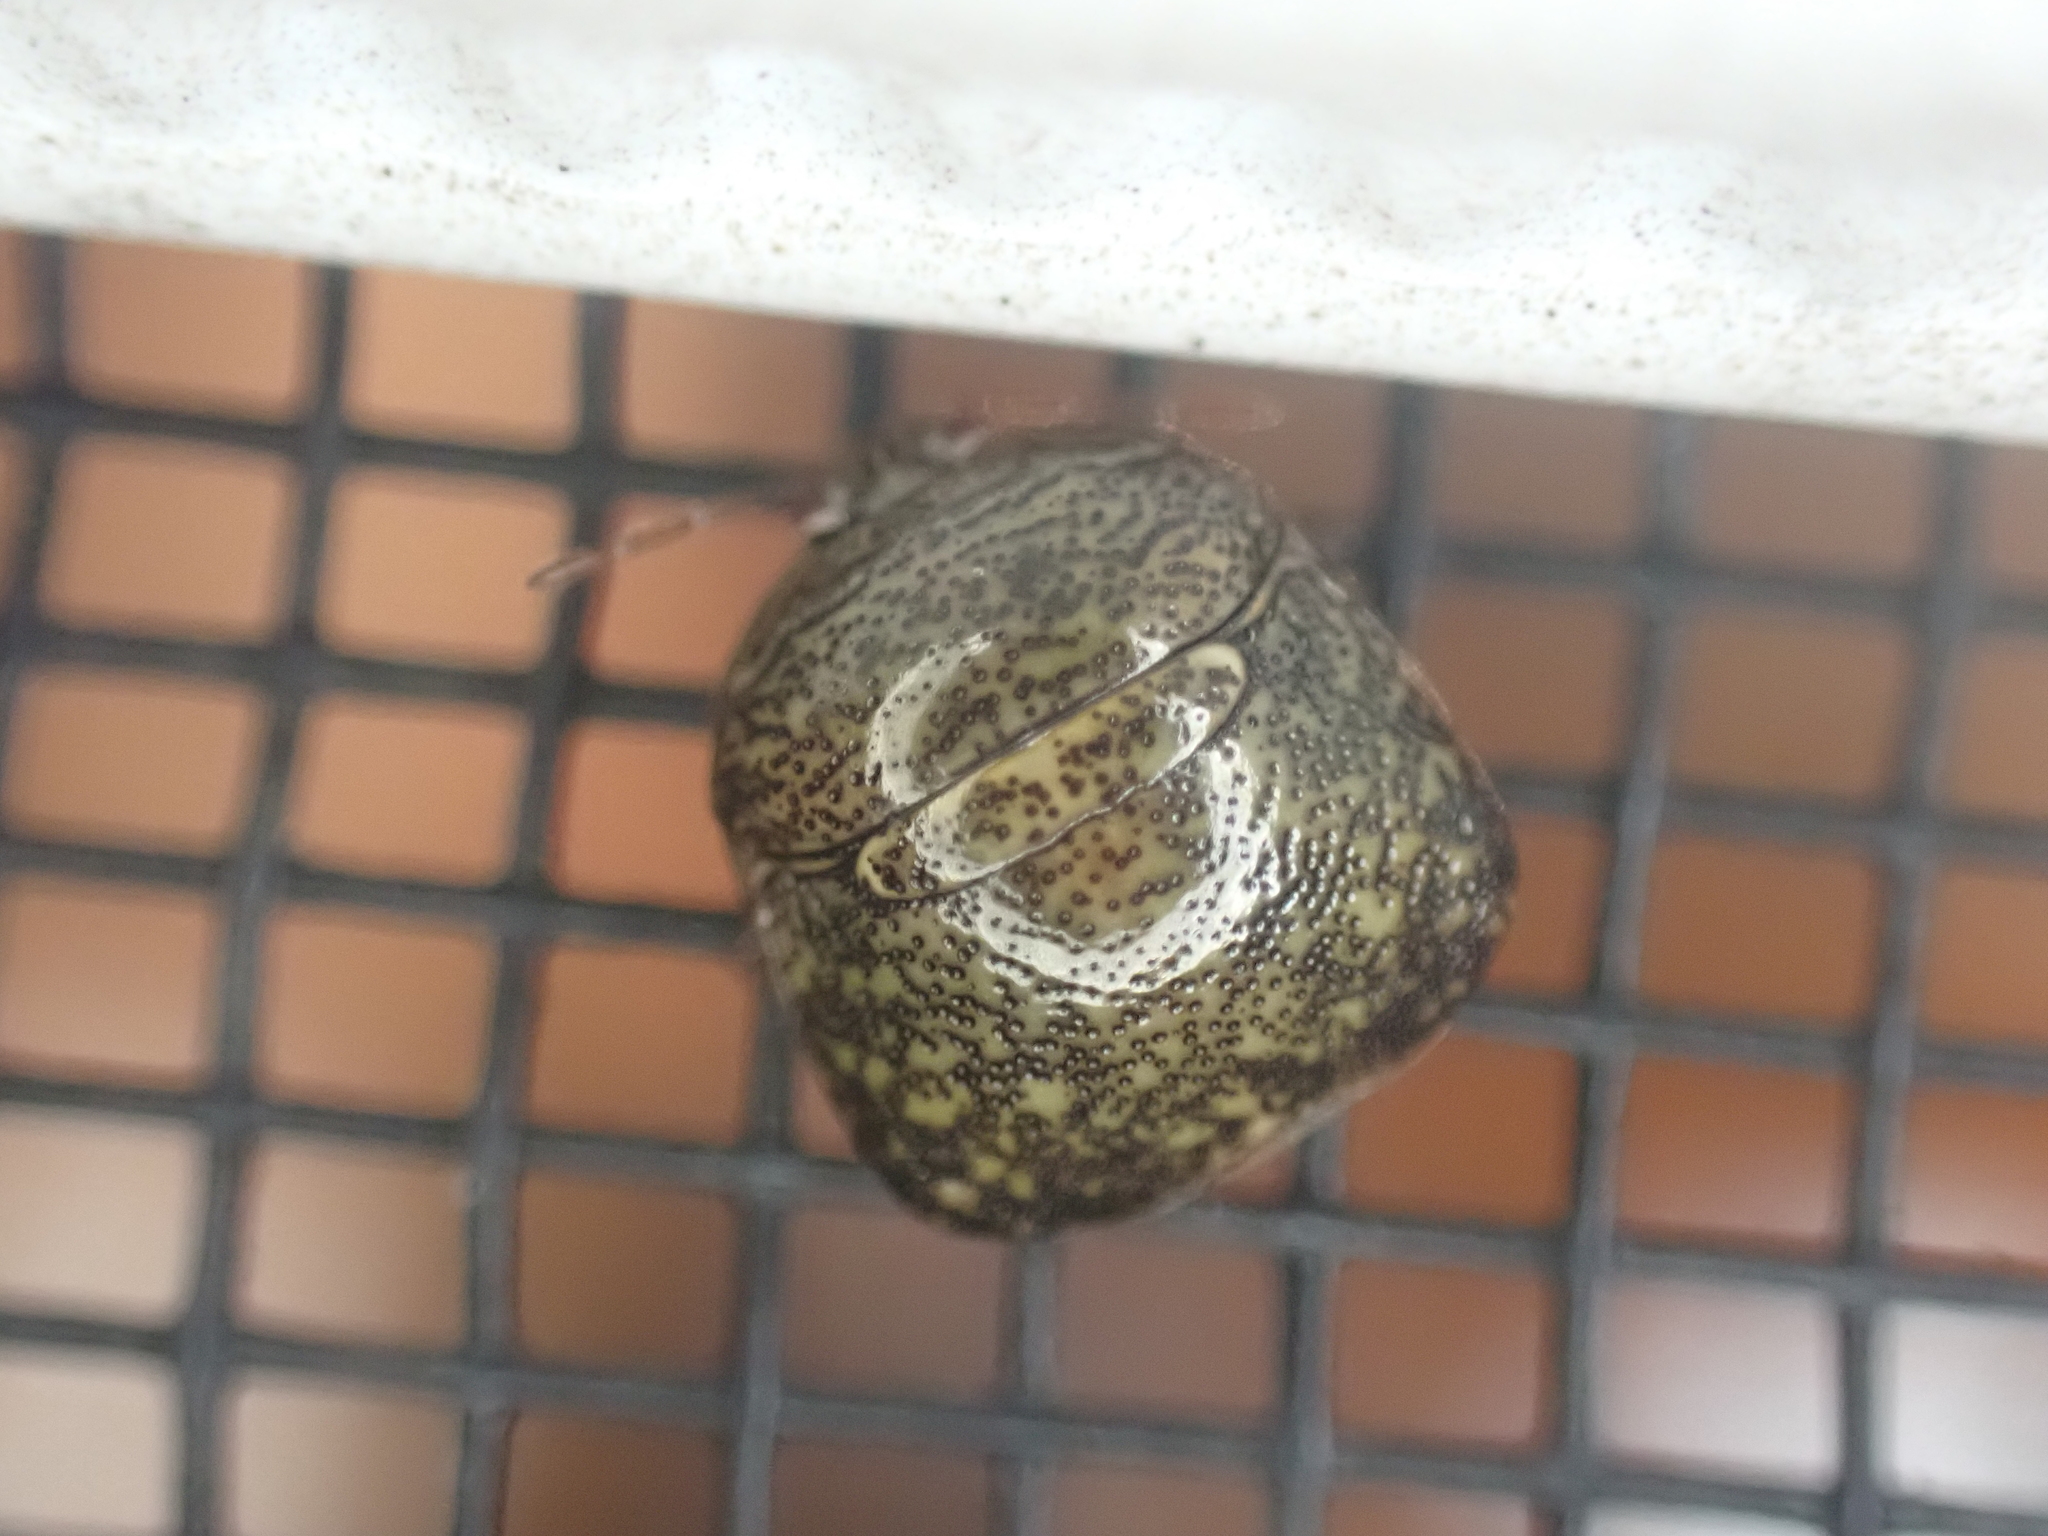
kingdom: Animalia
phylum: Arthropoda
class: Insecta
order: Hemiptera
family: Plataspidae
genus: Megacopta
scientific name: Megacopta cribraria
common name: Bean plataspid
